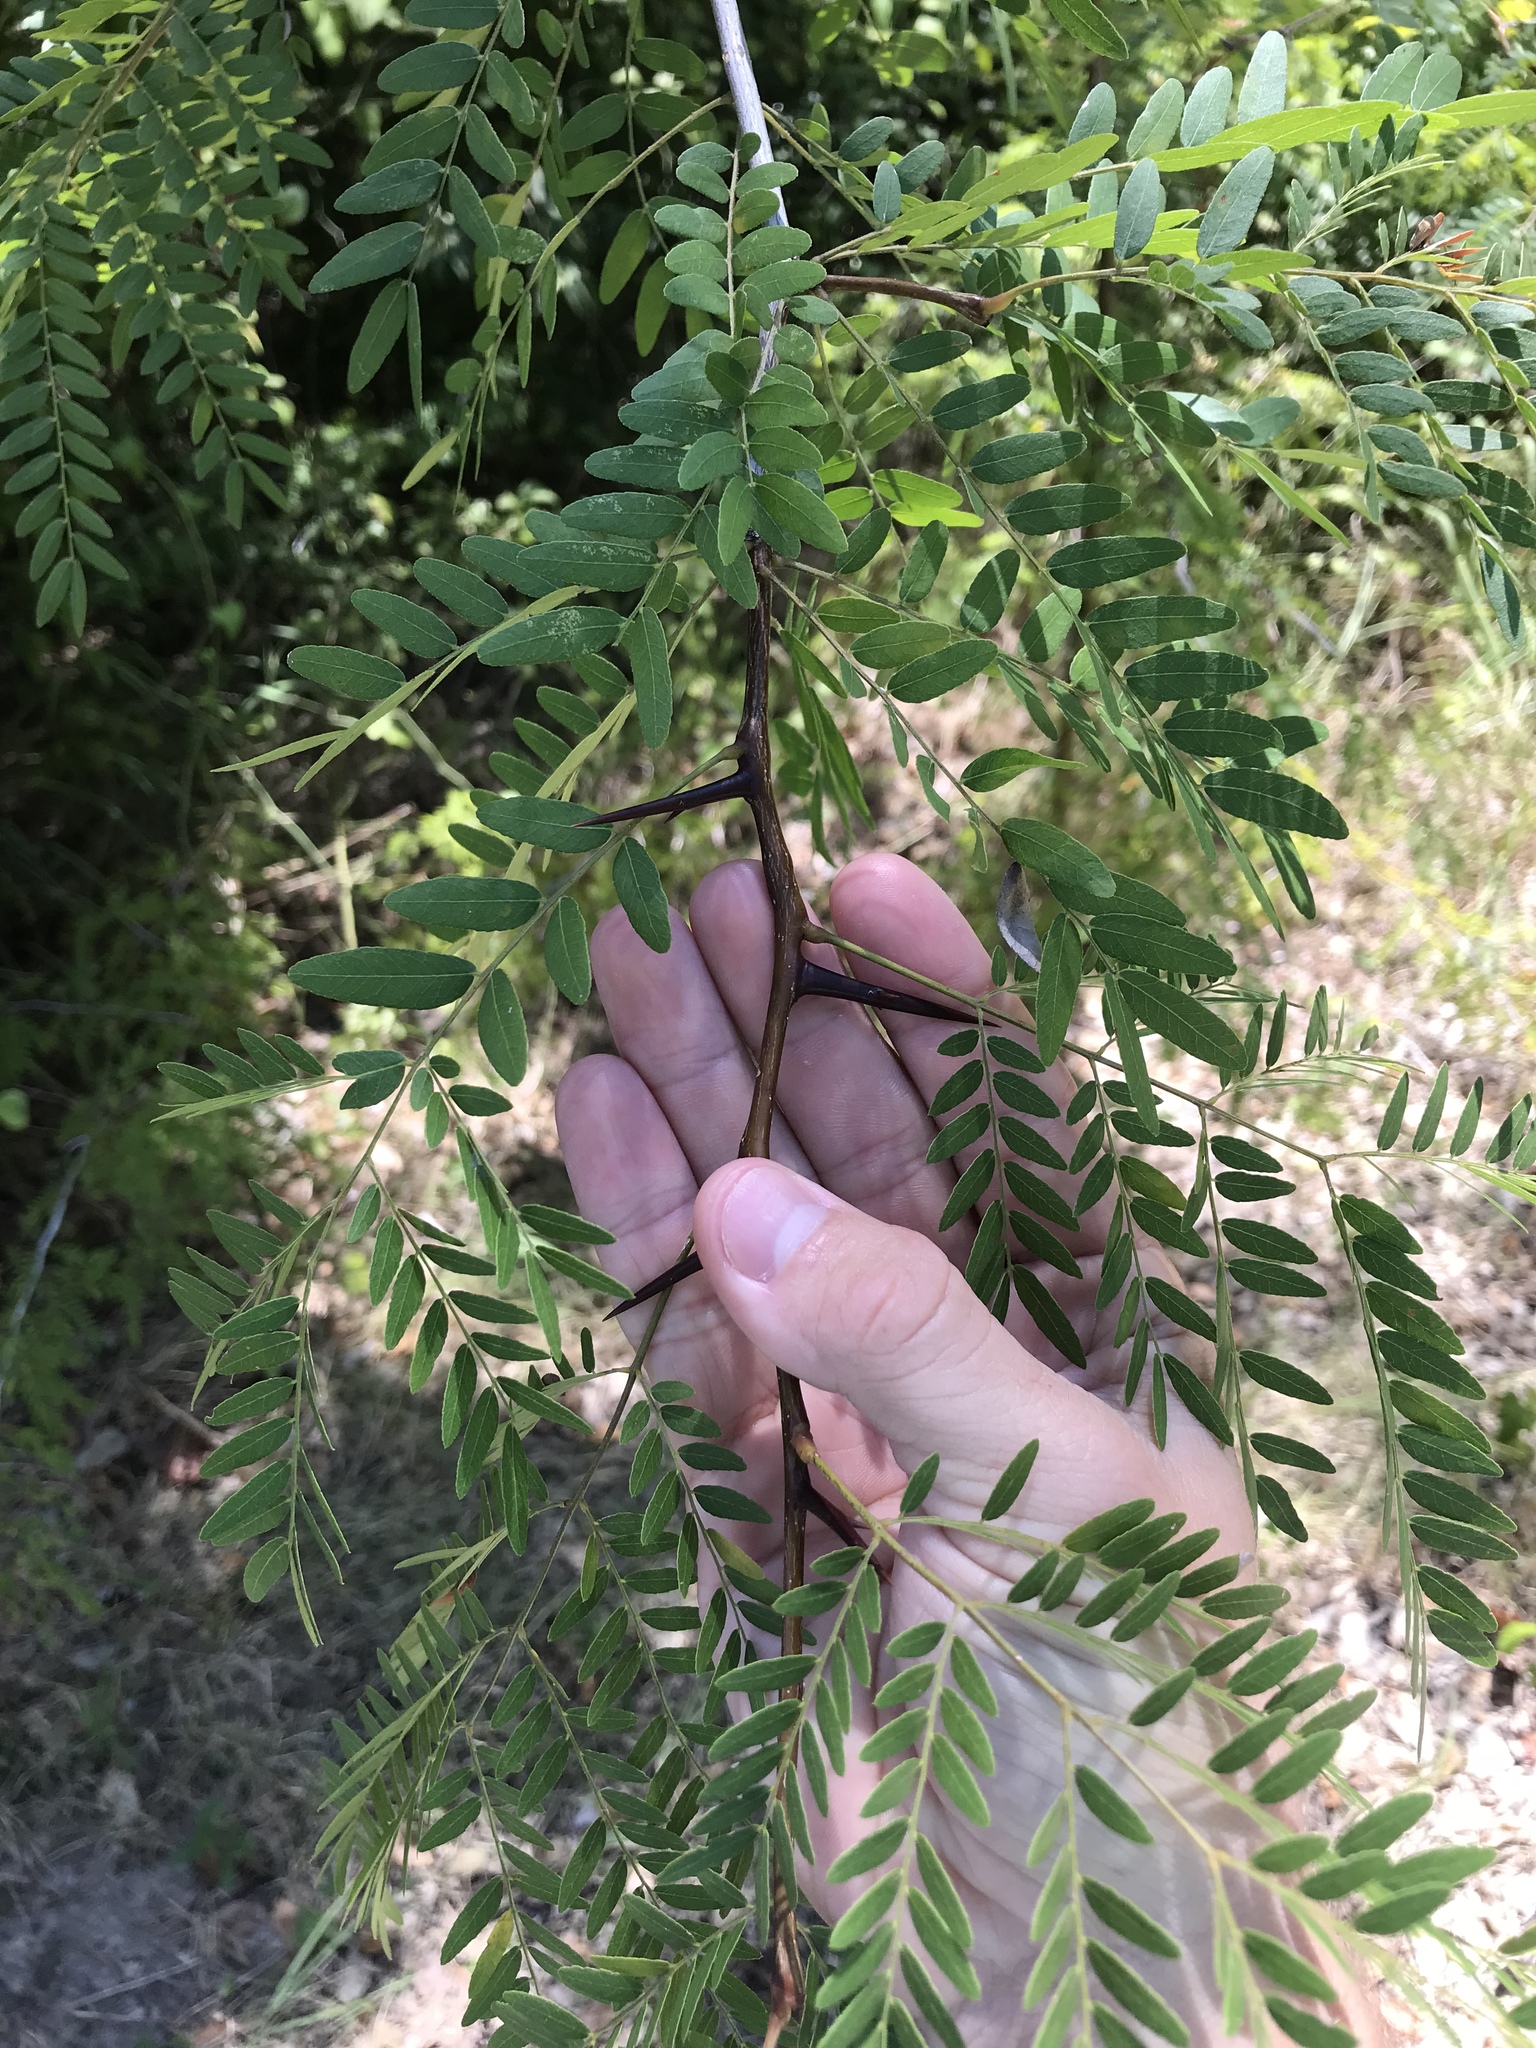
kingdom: Plantae
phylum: Tracheophyta
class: Magnoliopsida
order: Fabales
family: Fabaceae
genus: Gleditsia
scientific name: Gleditsia triacanthos
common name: Common honeylocust
